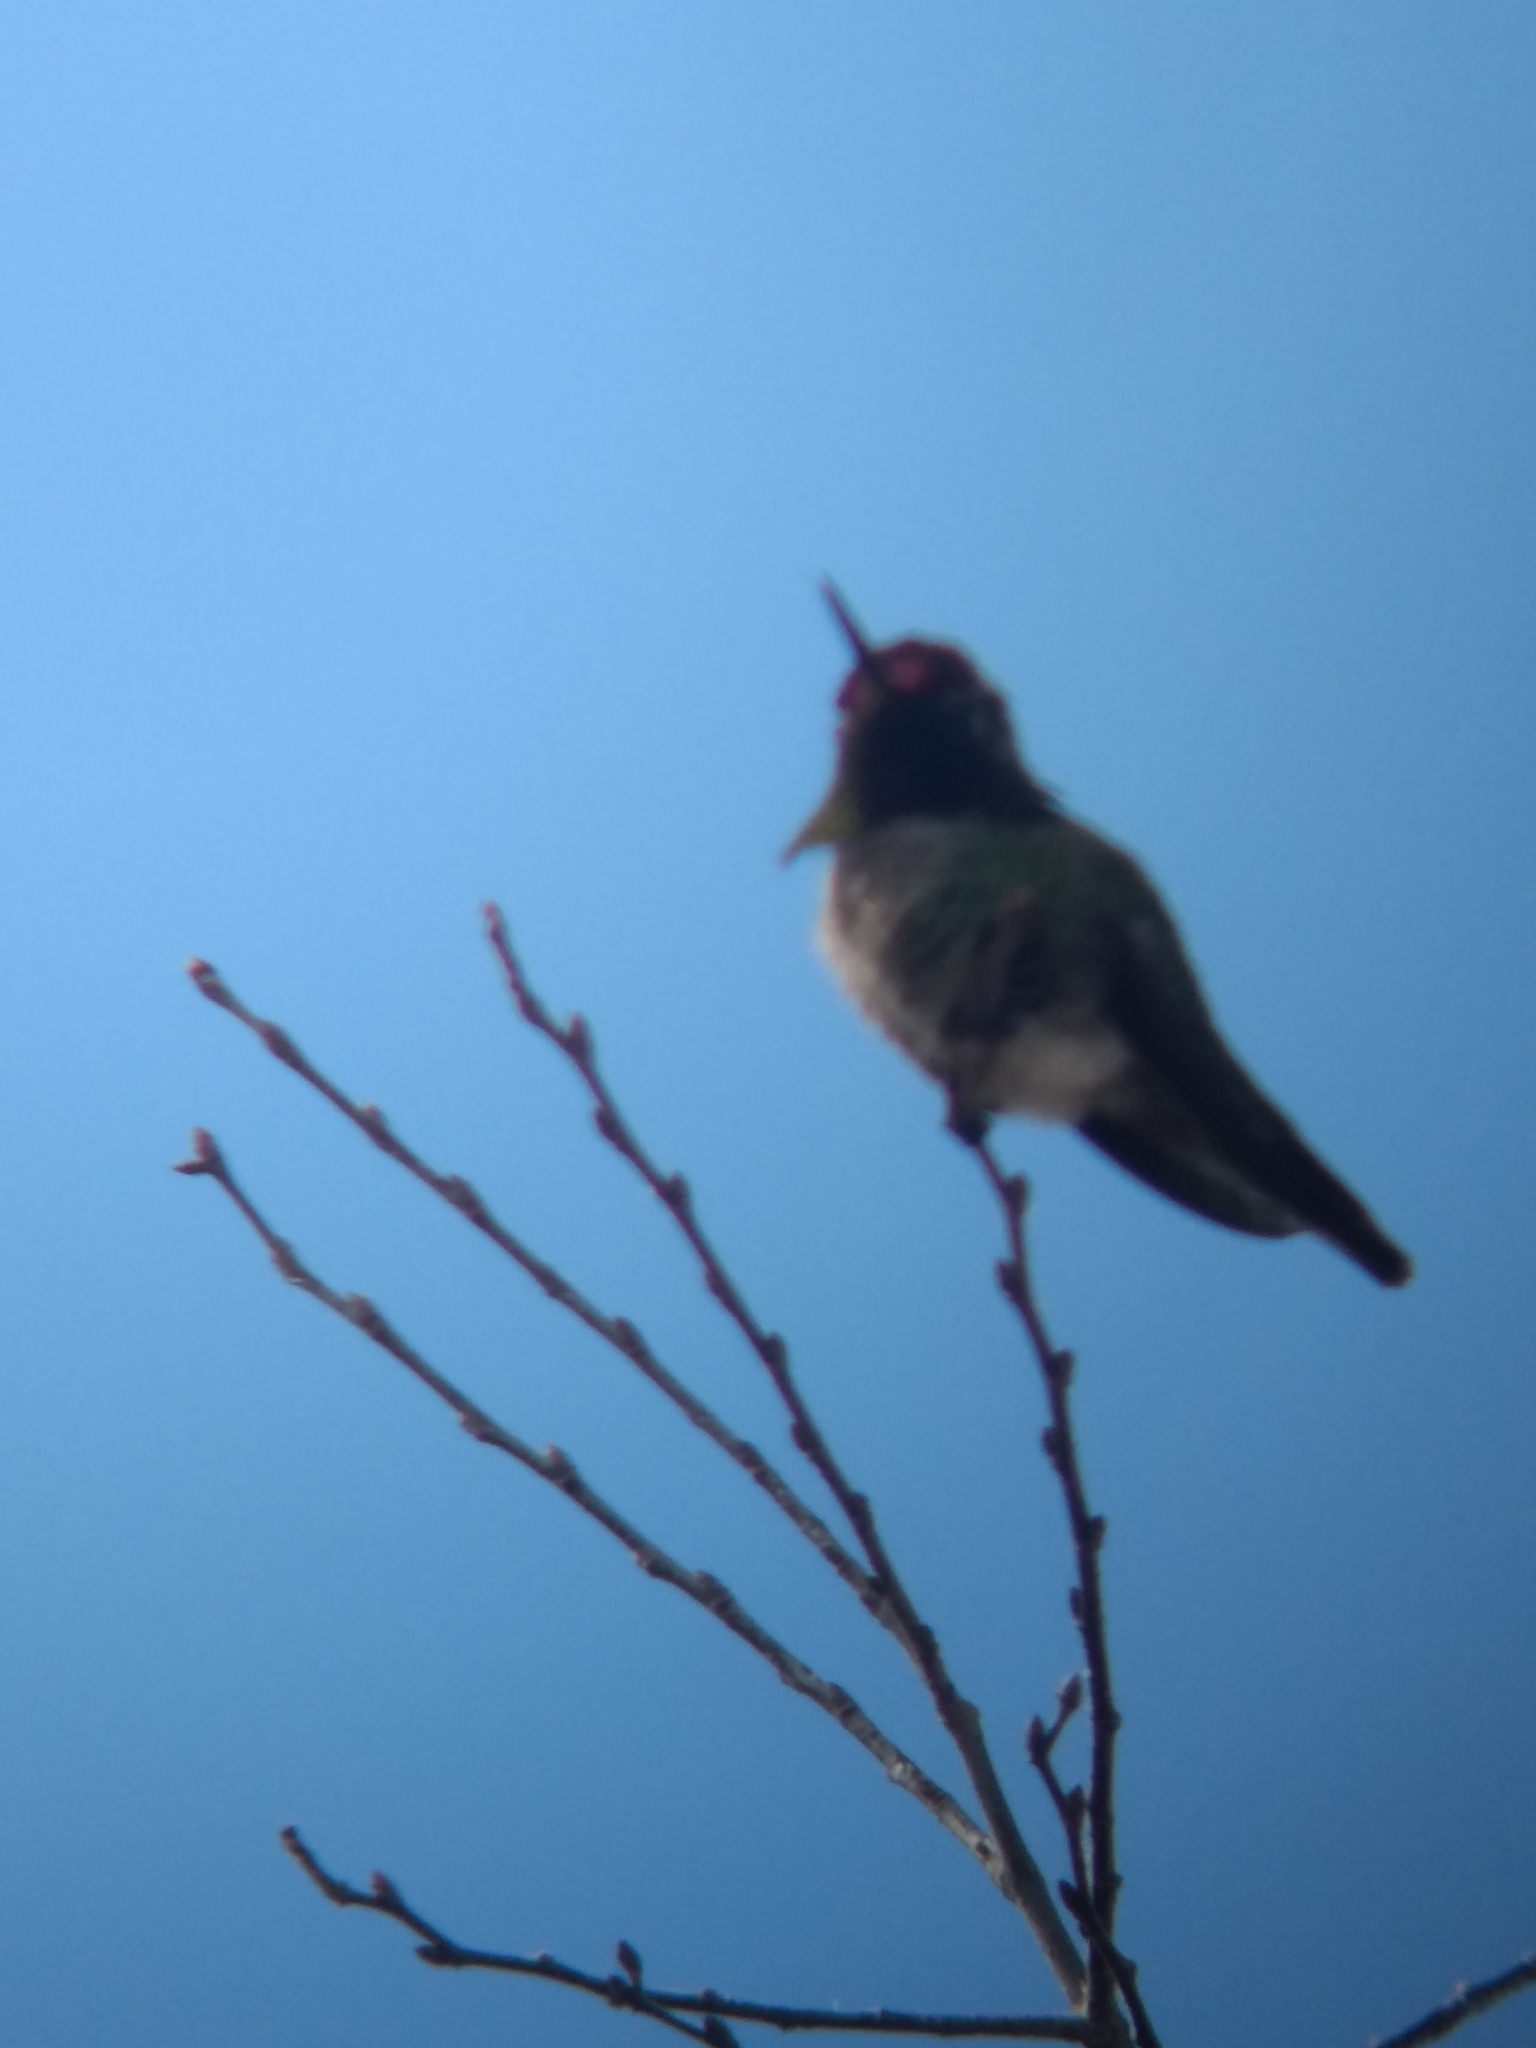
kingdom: Animalia
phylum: Chordata
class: Aves
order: Apodiformes
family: Trochilidae
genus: Calypte
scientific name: Calypte anna
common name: Anna's hummingbird
